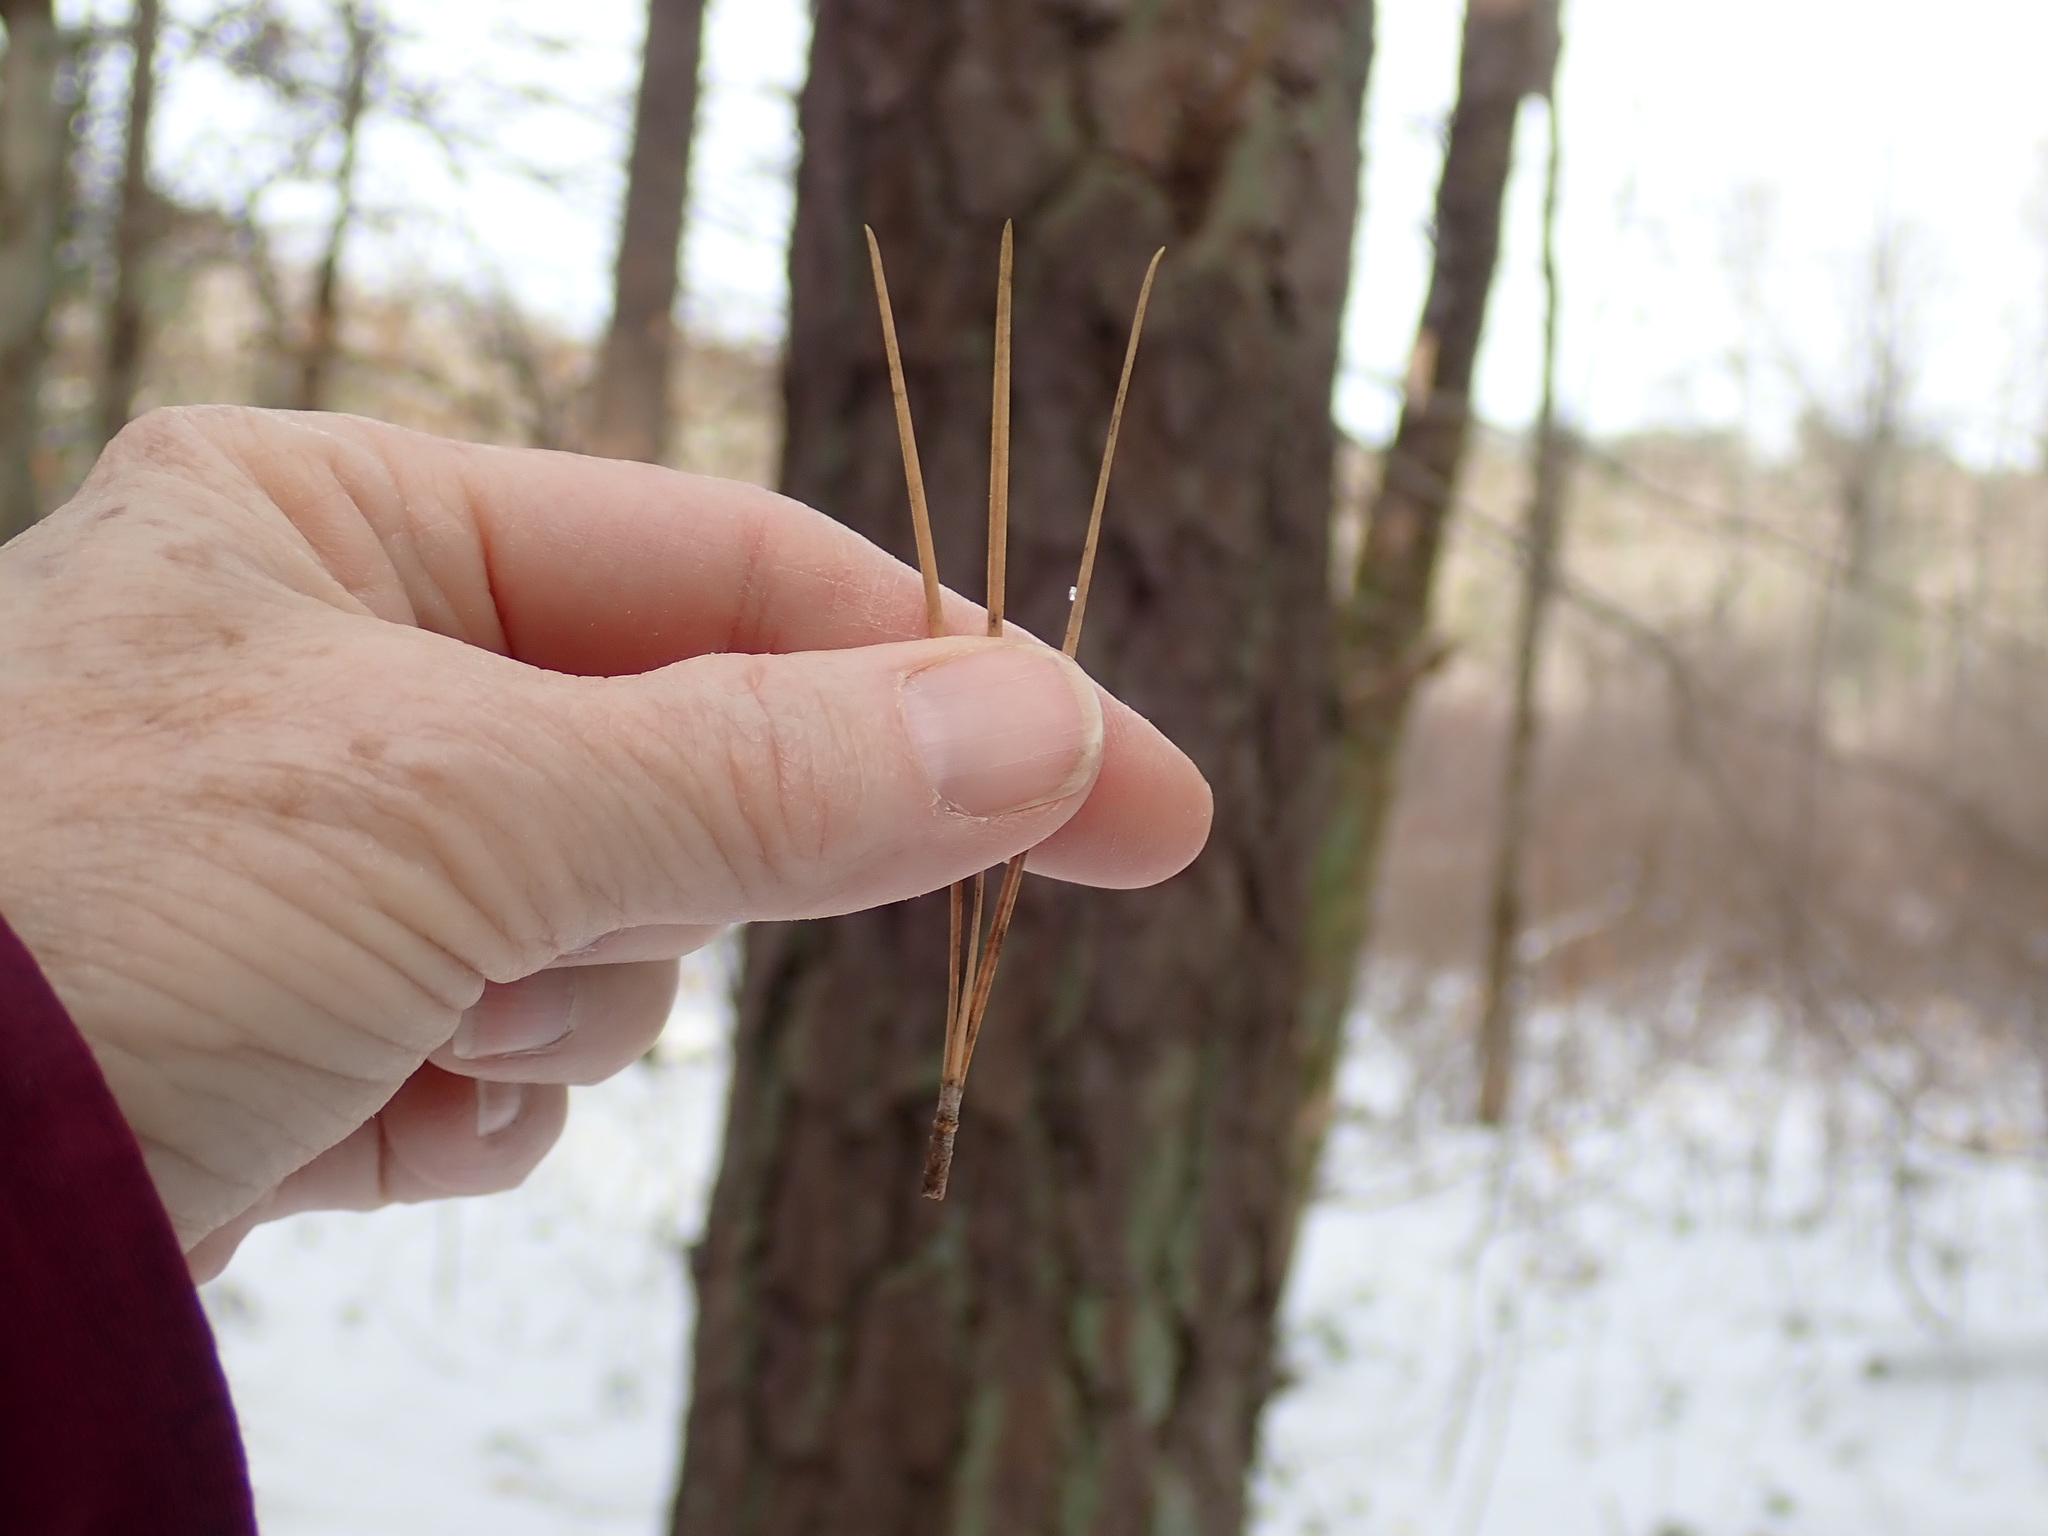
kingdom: Plantae
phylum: Tracheophyta
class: Pinopsida
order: Pinales
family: Pinaceae
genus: Pinus
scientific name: Pinus rigida
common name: Pitch pine
